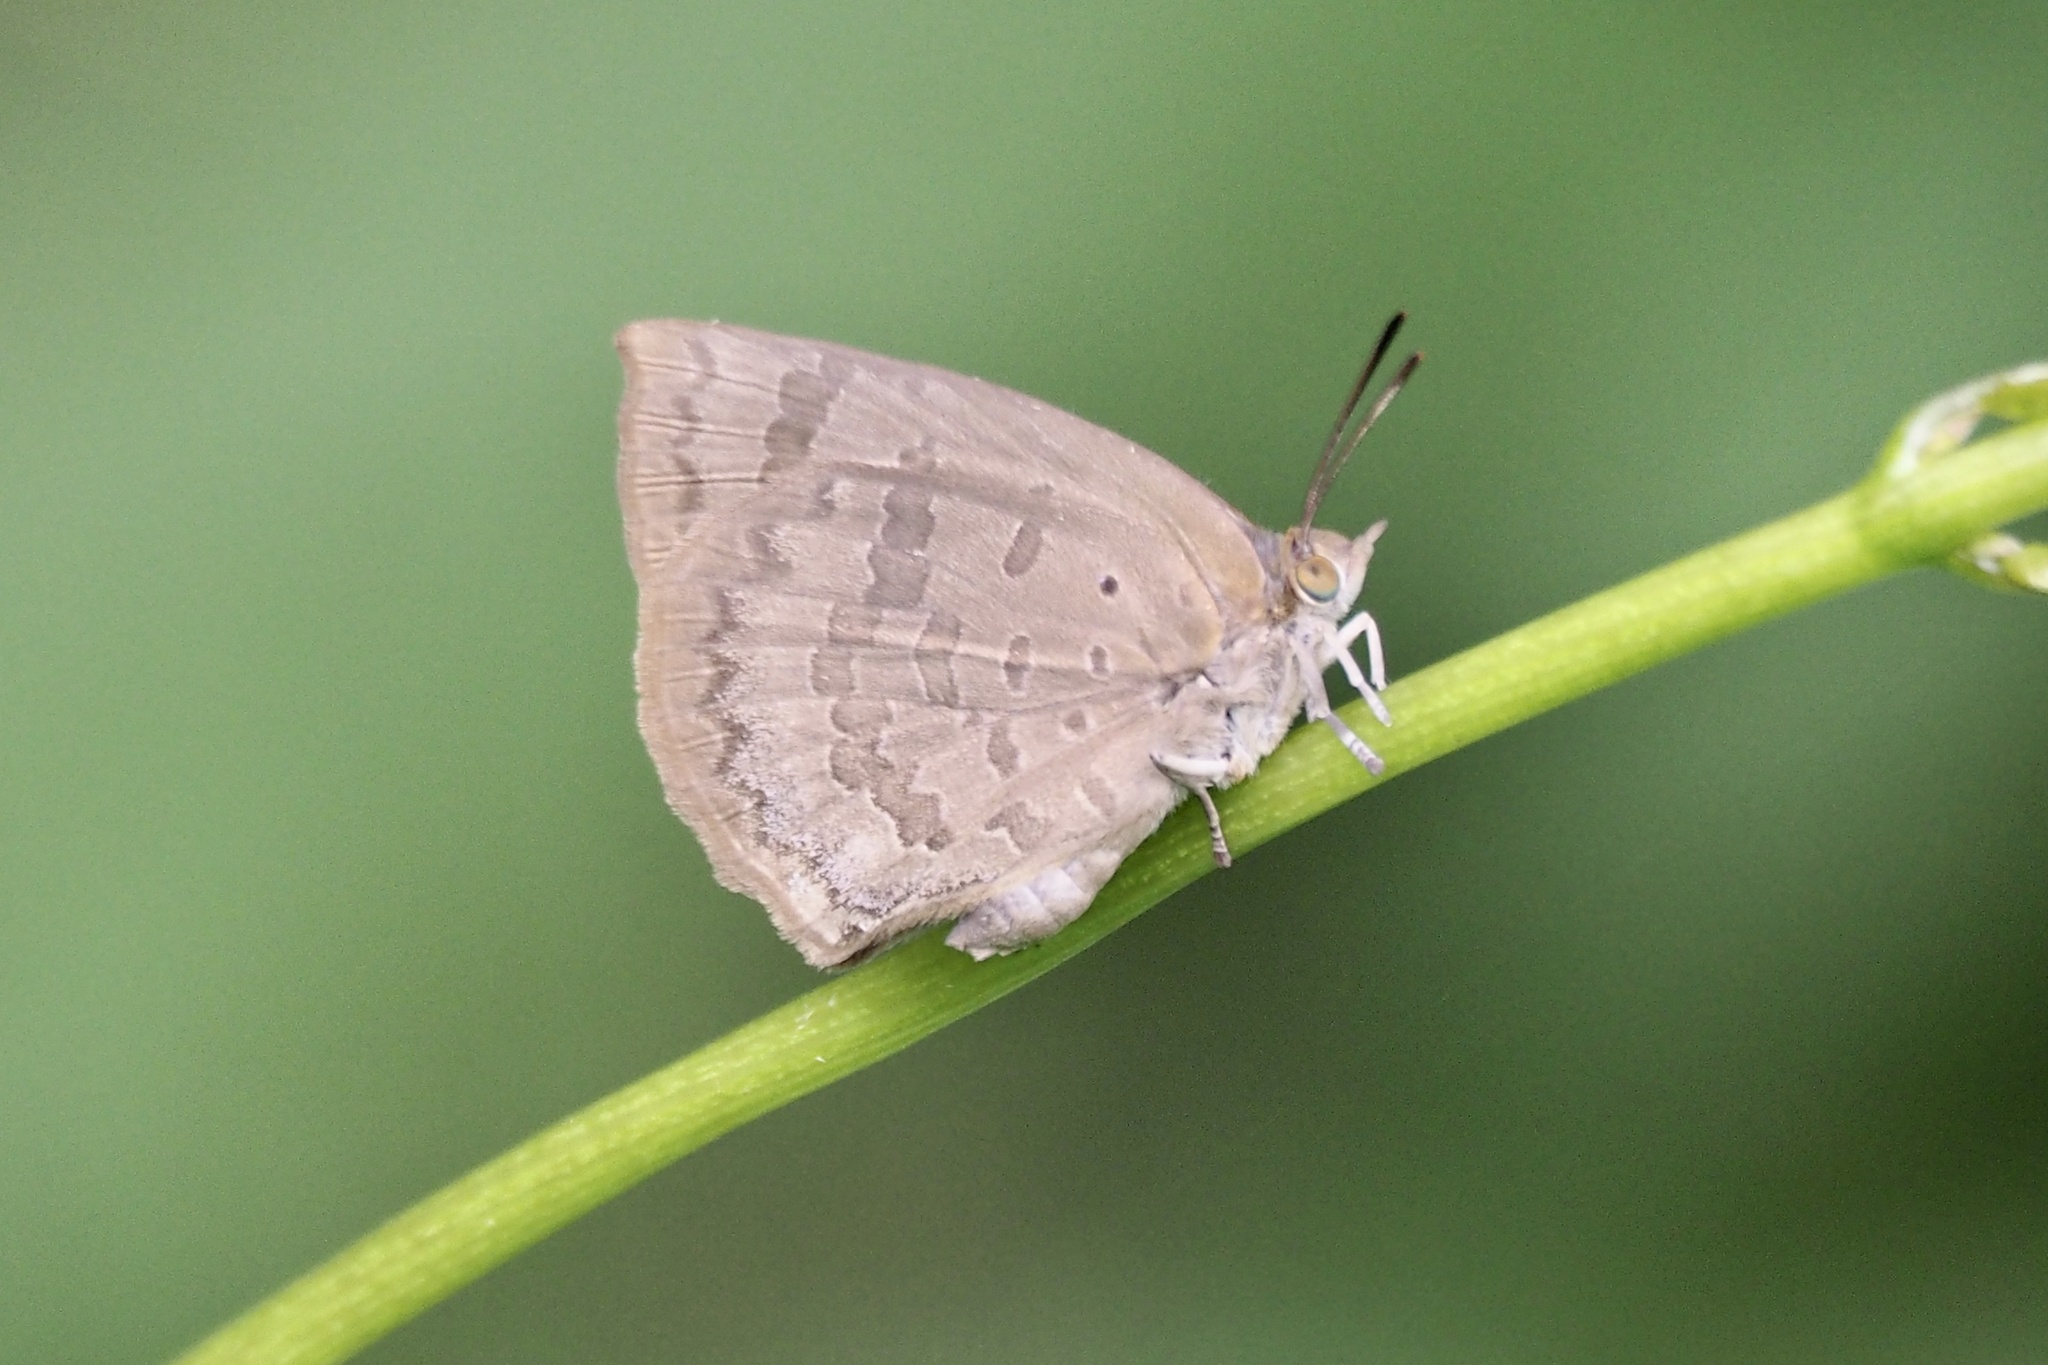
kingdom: Animalia
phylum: Arthropoda
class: Insecta
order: Lepidoptera
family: Lycaenidae
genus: Arhopala
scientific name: Arhopala japonica
